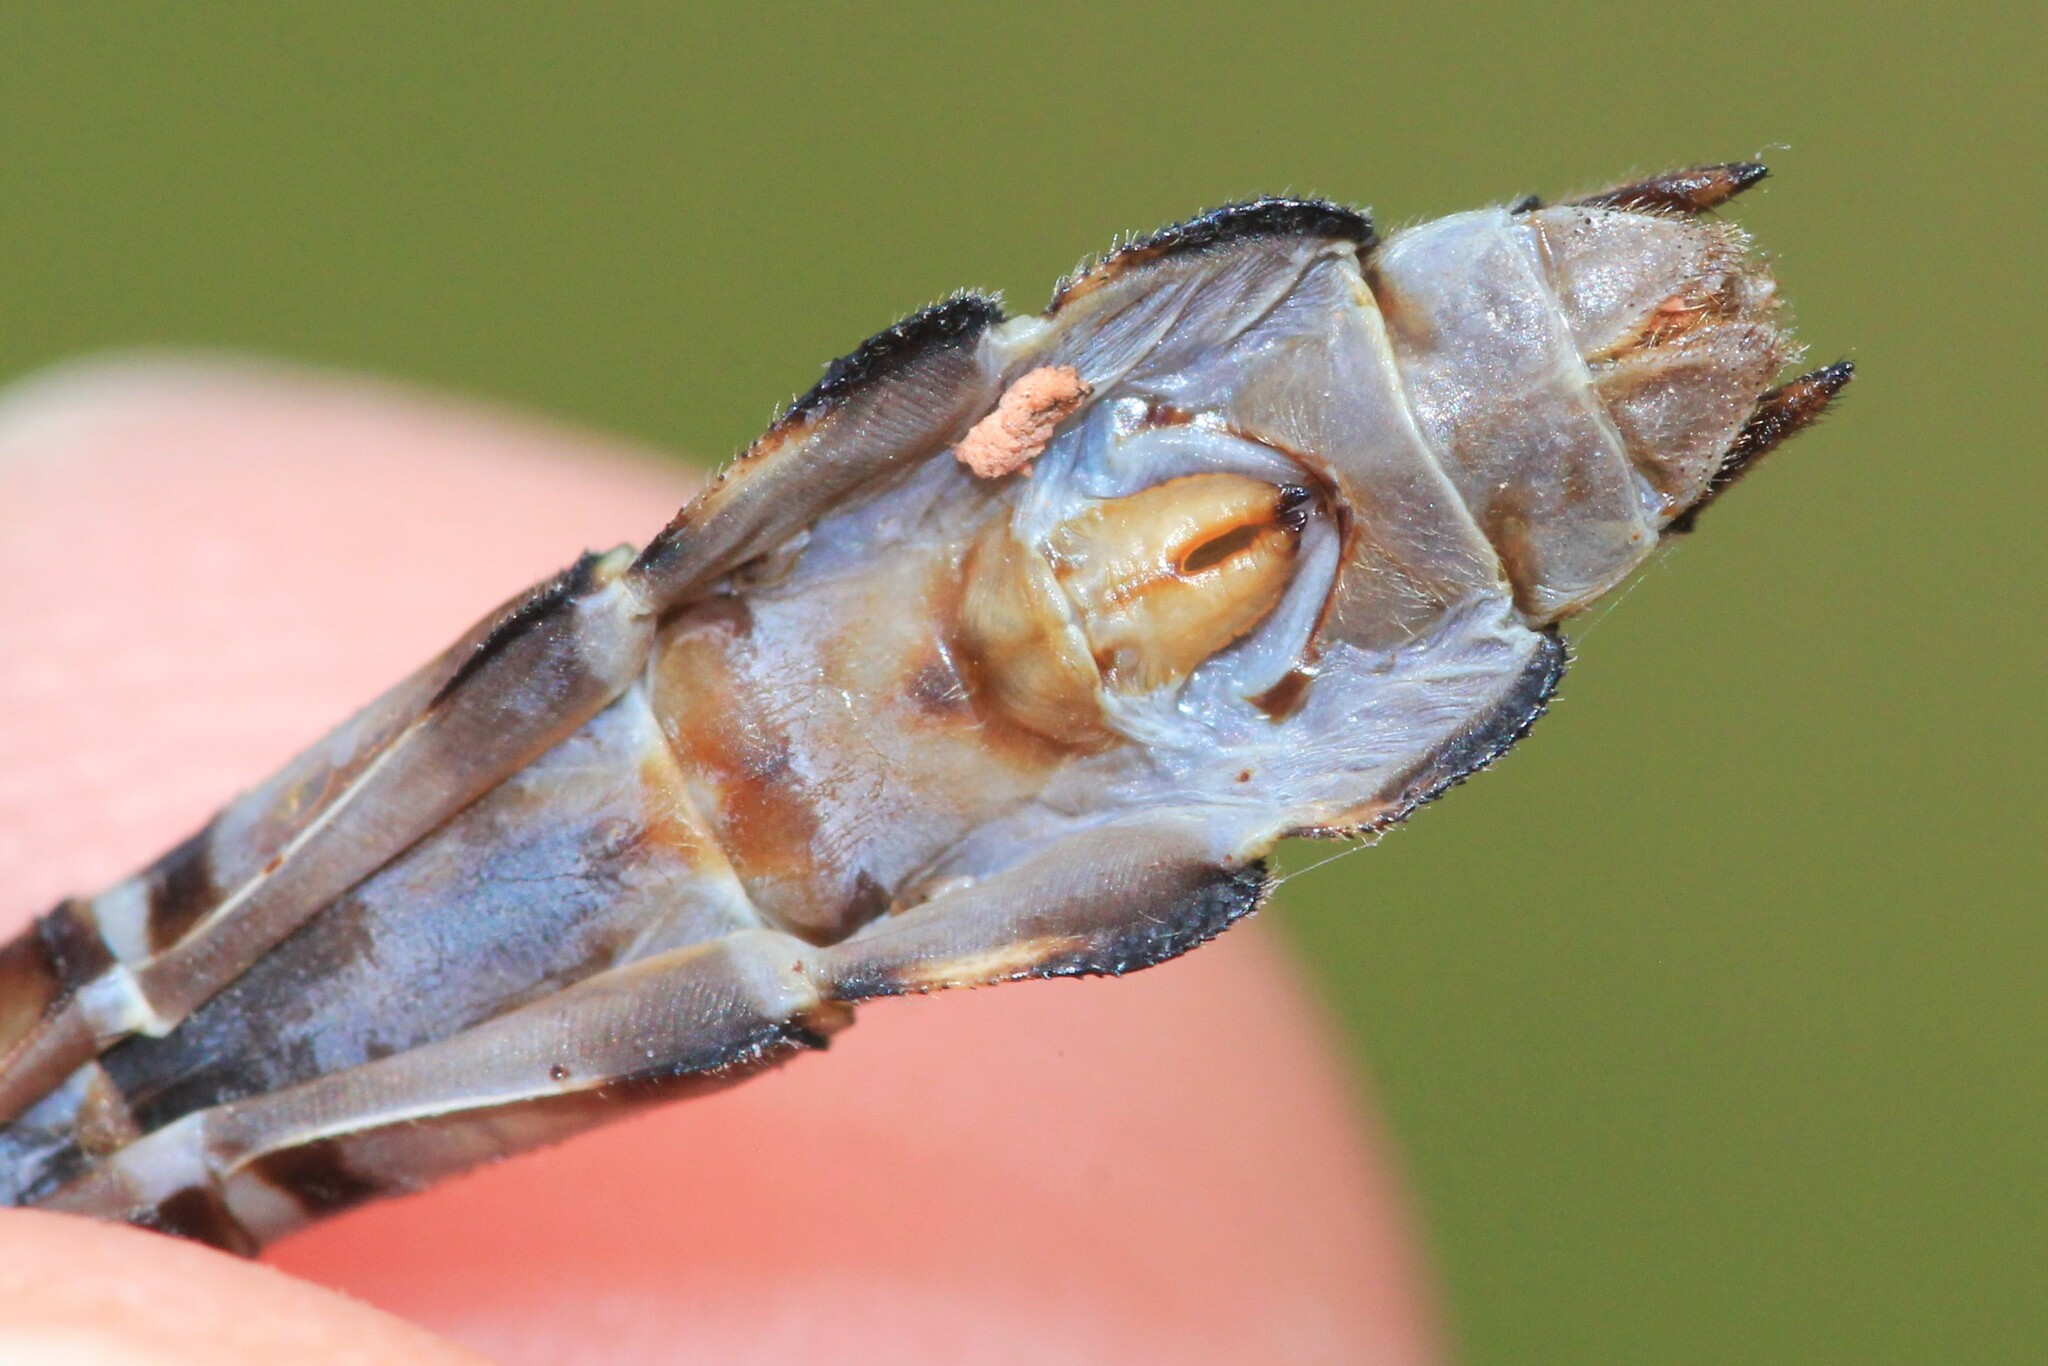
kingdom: Animalia
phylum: Arthropoda
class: Insecta
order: Odonata
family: Gomphidae
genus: Ophiogomphus
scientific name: Ophiogomphus colubrinus
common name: Boreal snaketail
